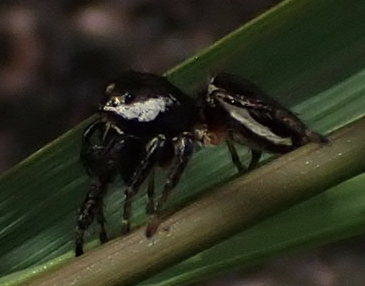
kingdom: Animalia
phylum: Arthropoda
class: Arachnida
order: Araneae
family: Salticidae
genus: Eris
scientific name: Eris militaris
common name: Bronze jumper
